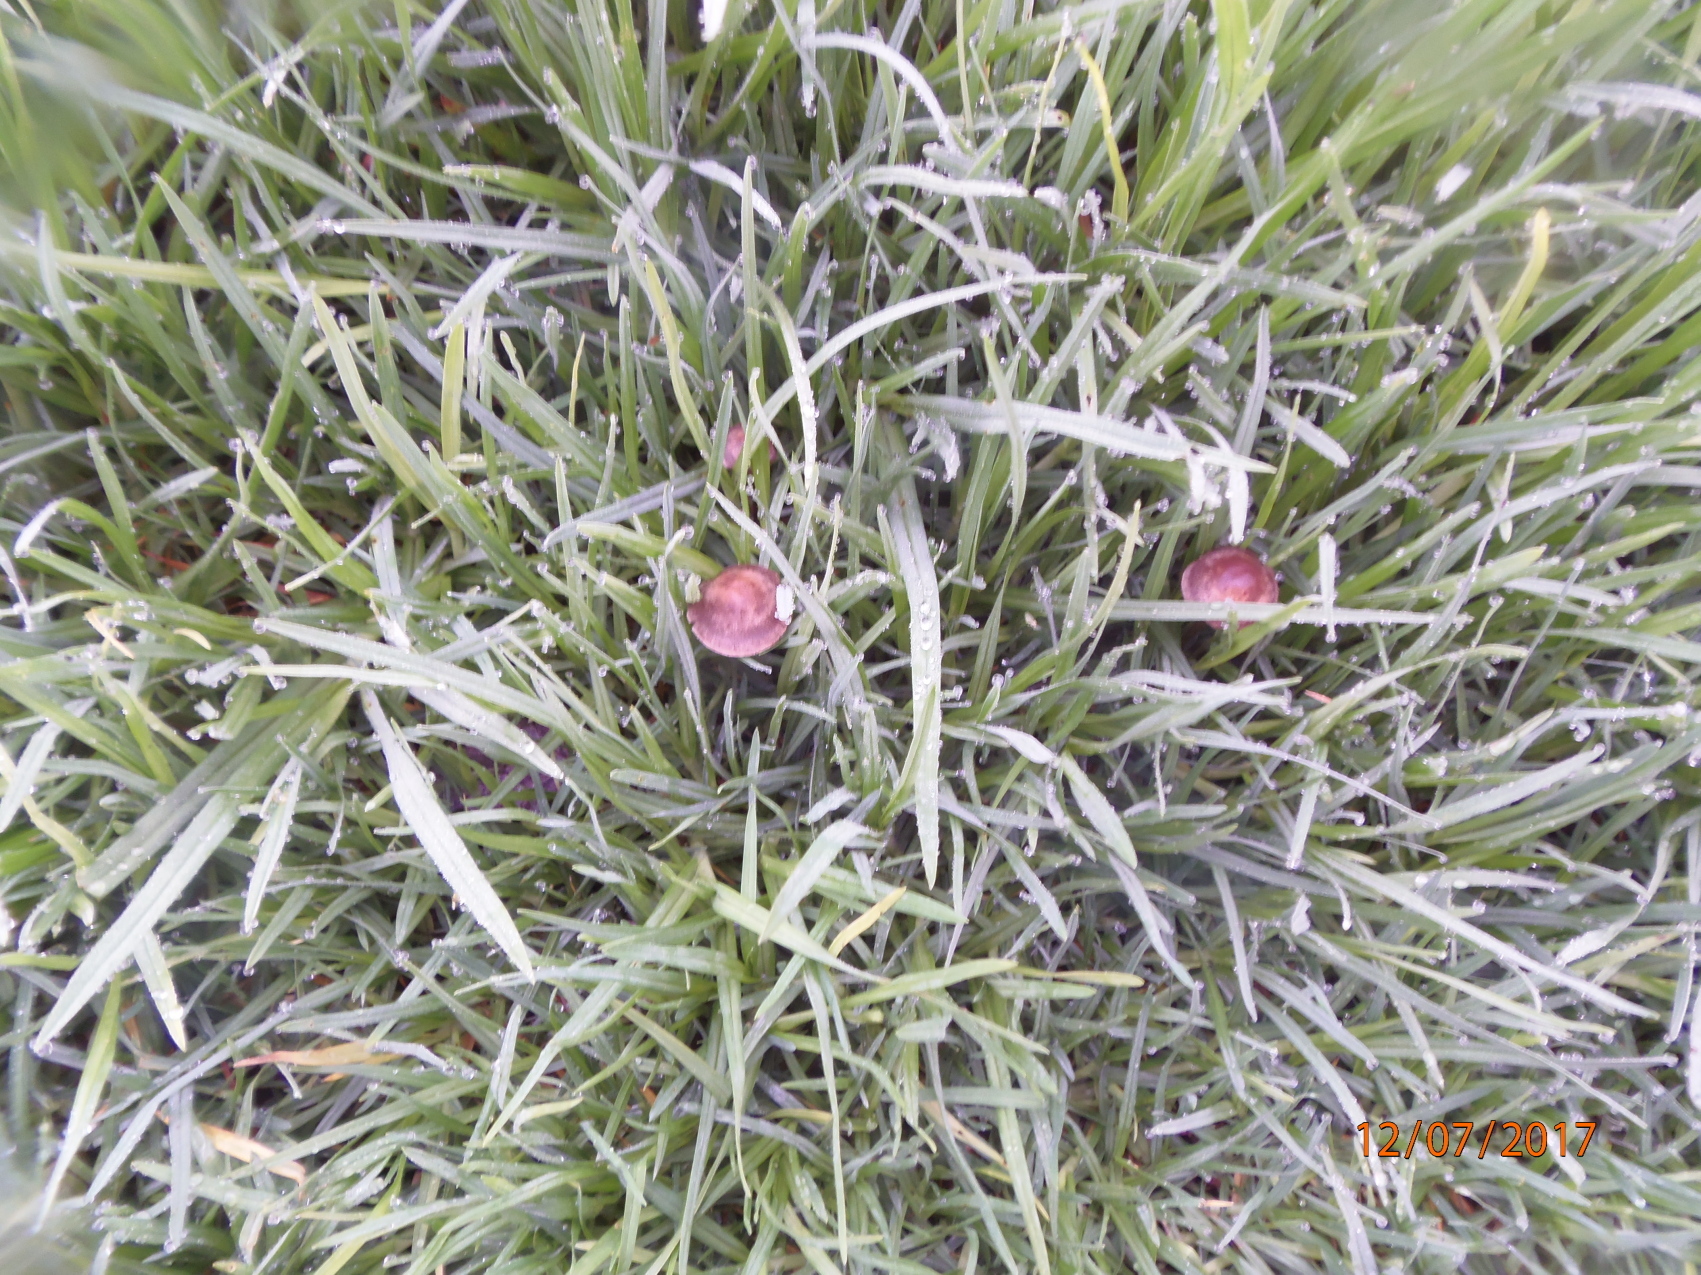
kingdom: Fungi
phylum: Basidiomycota
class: Agaricomycetes
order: Agaricales
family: Bolbitiaceae
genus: Panaeolina
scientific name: Panaeolina foenisecii
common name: Brown hay cap
